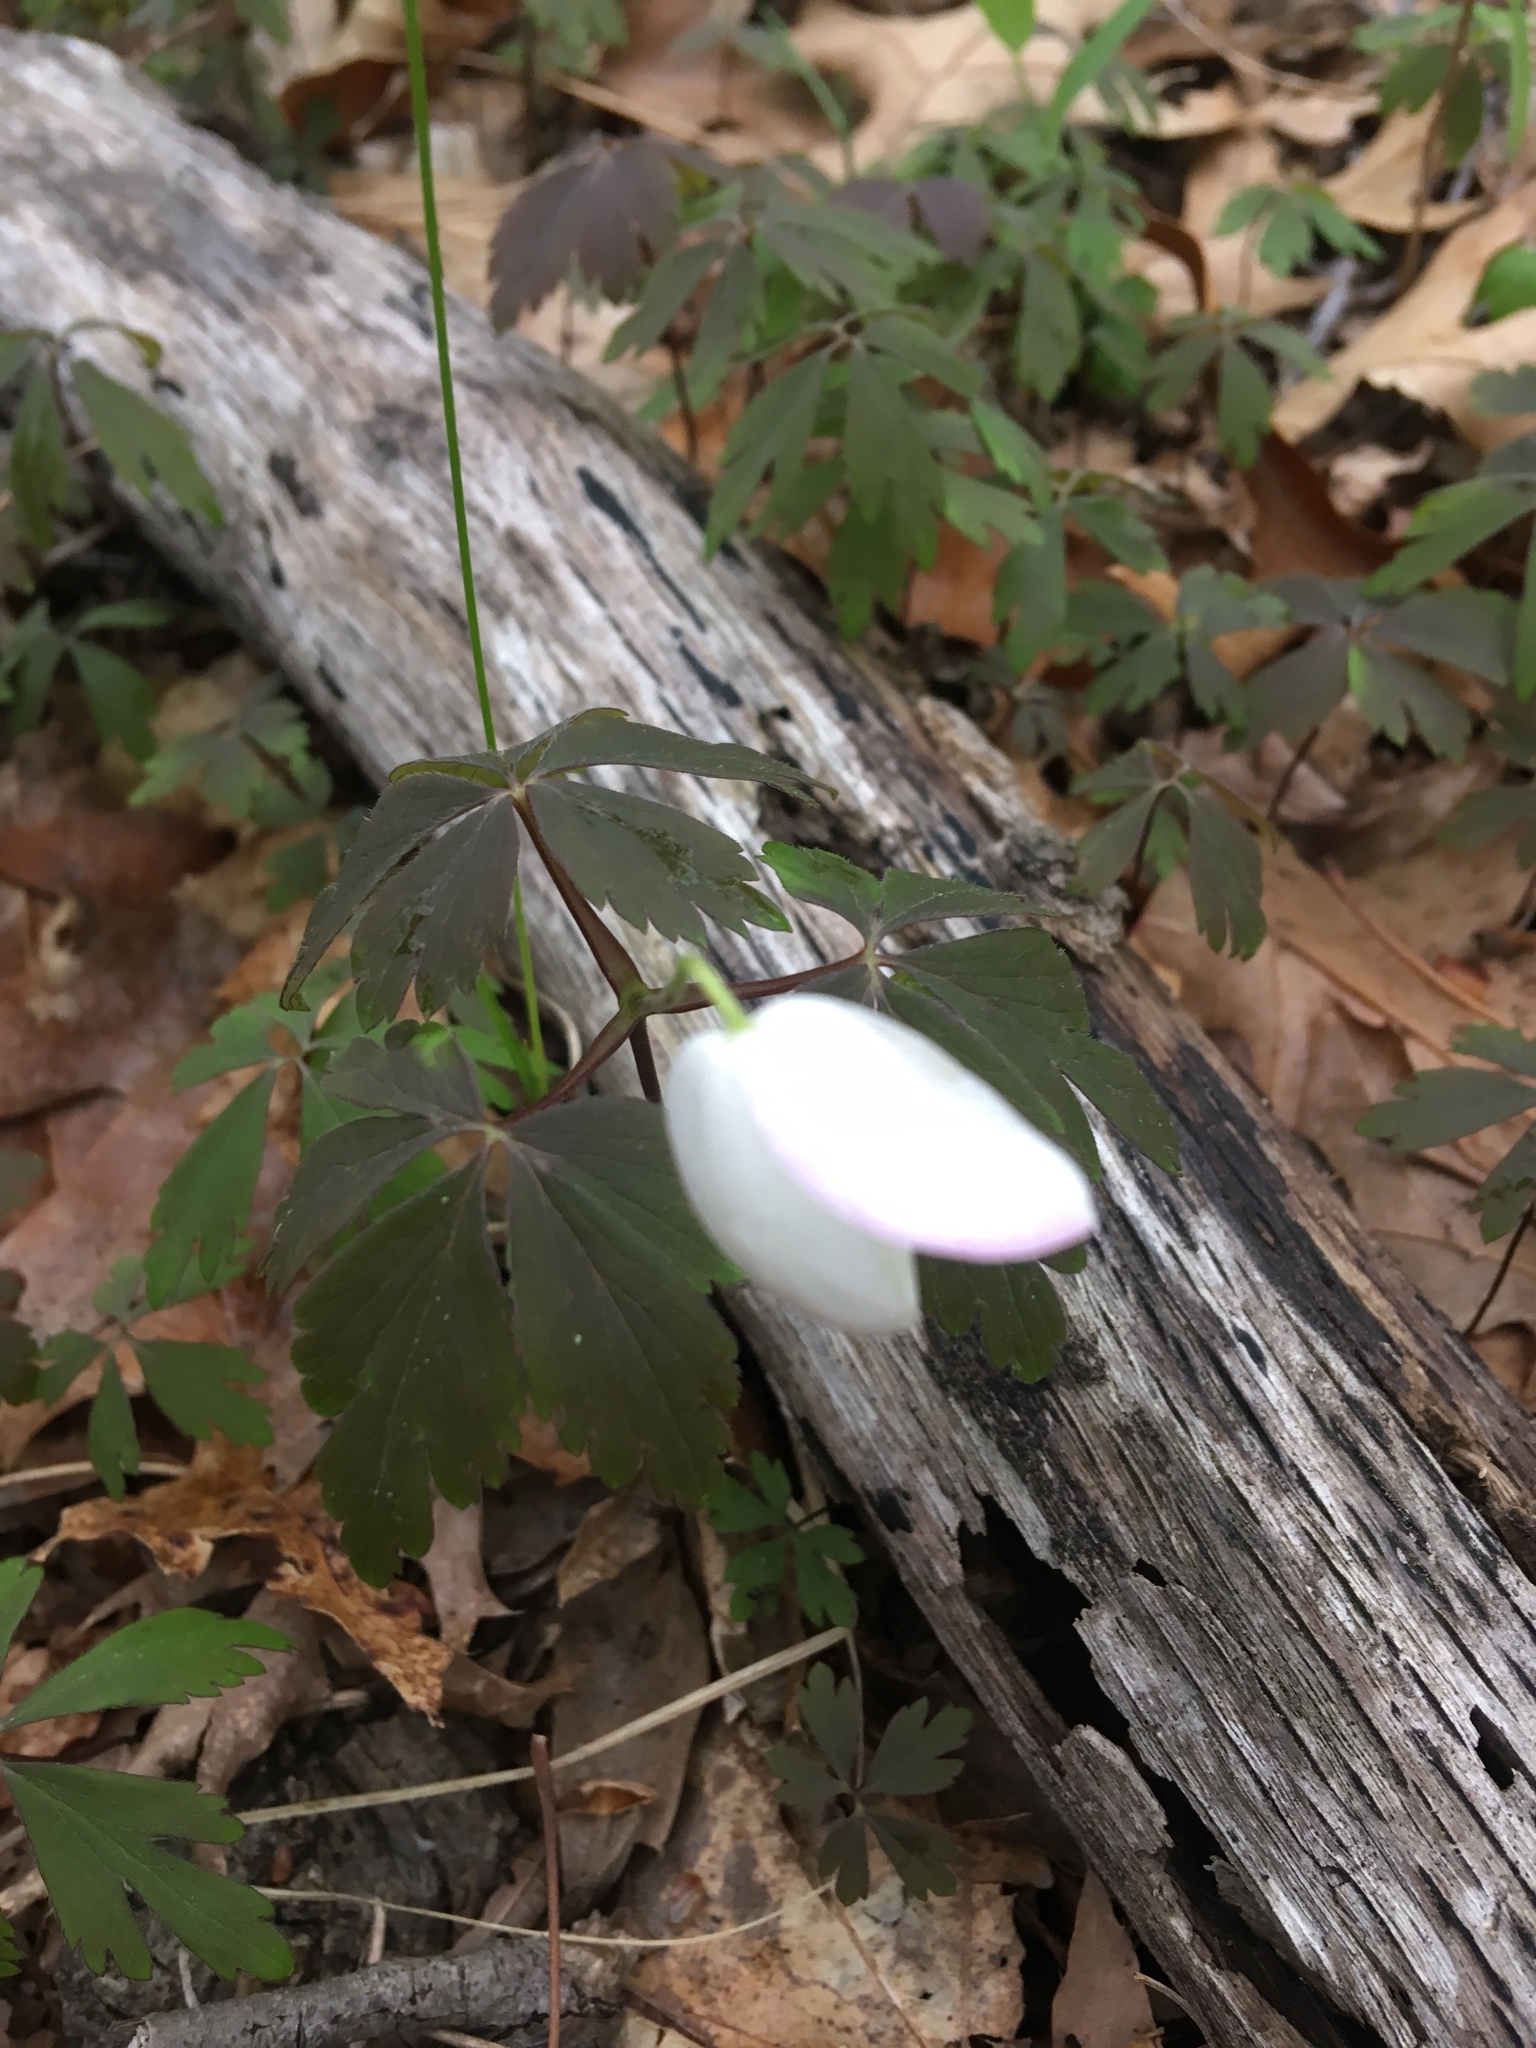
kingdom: Plantae
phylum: Tracheophyta
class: Magnoliopsida
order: Ranunculales
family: Ranunculaceae
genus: Anemone
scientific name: Anemone quinquefolia
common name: Wood anemone
